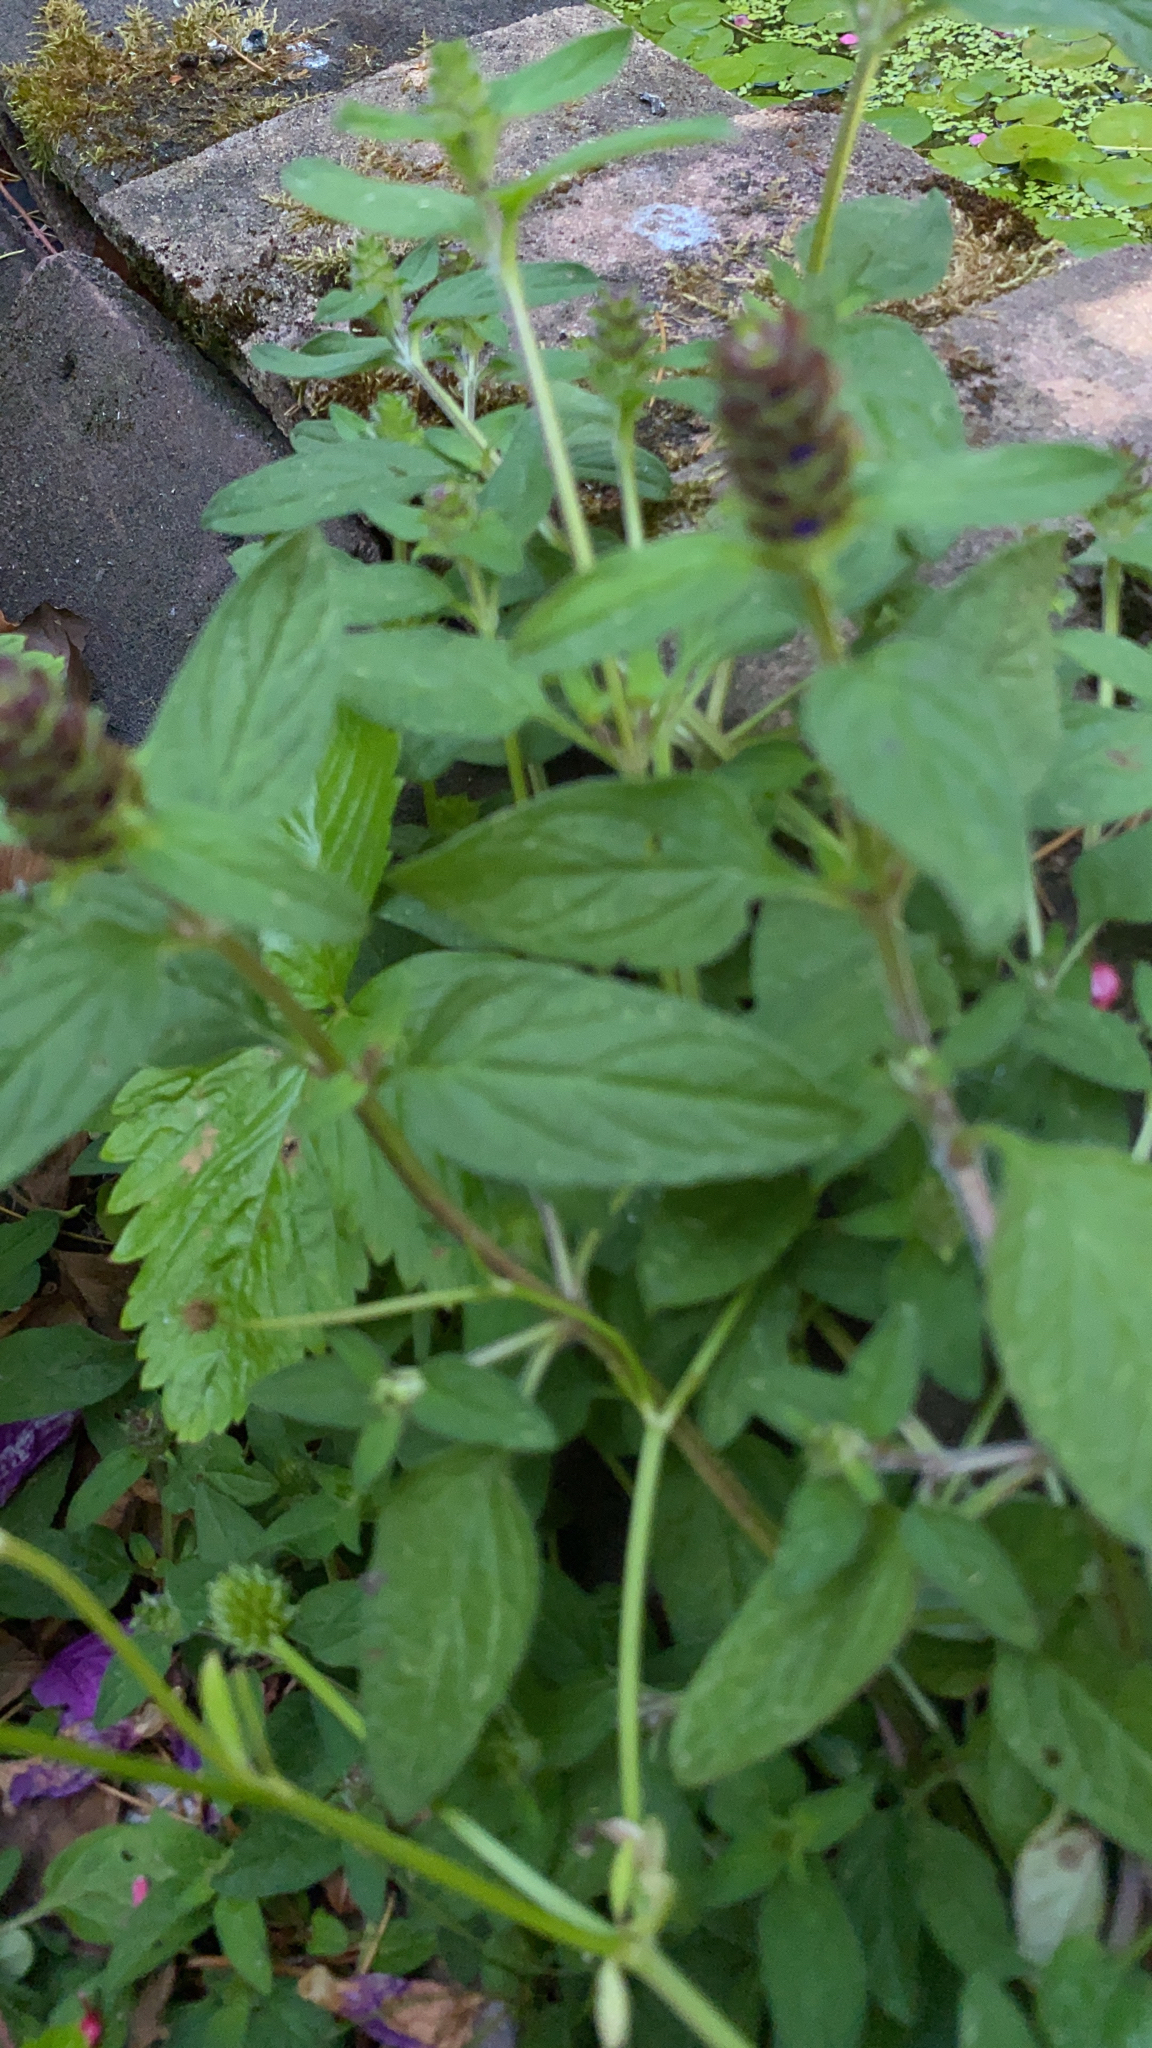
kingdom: Plantae
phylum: Tracheophyta
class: Magnoliopsida
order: Lamiales
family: Lamiaceae
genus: Prunella
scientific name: Prunella vulgaris
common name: Heal-all
